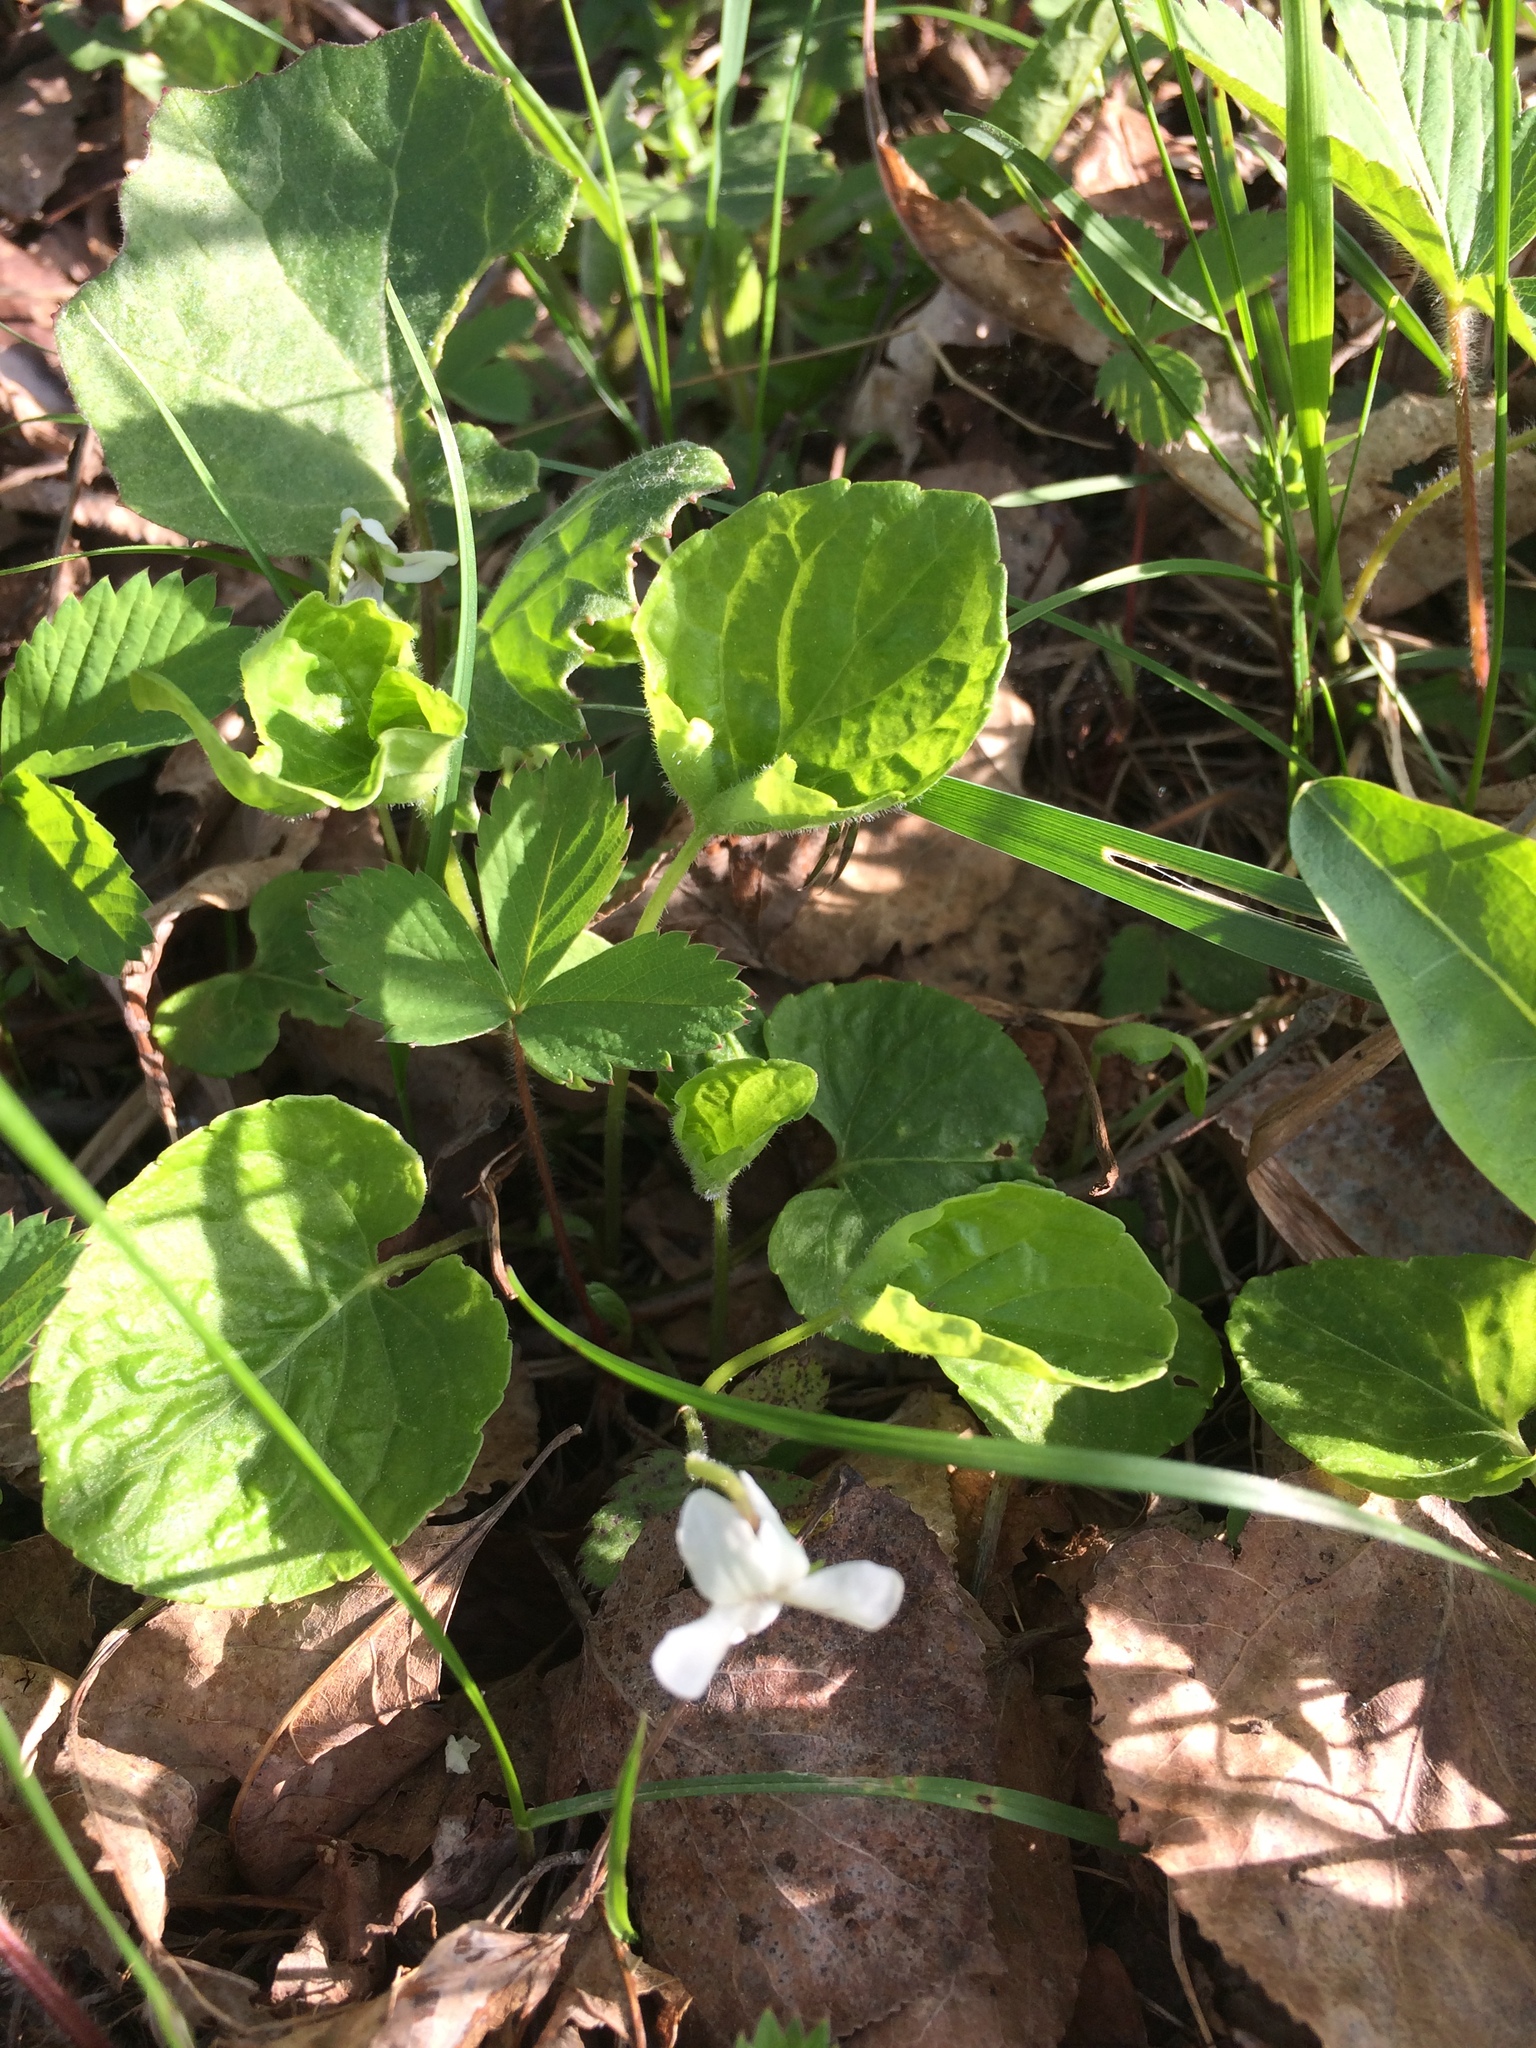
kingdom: Plantae
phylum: Tracheophyta
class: Magnoliopsida
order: Malpighiales
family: Violaceae
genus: Viola
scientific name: Viola renifolia
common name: Kidney-leaf violet
